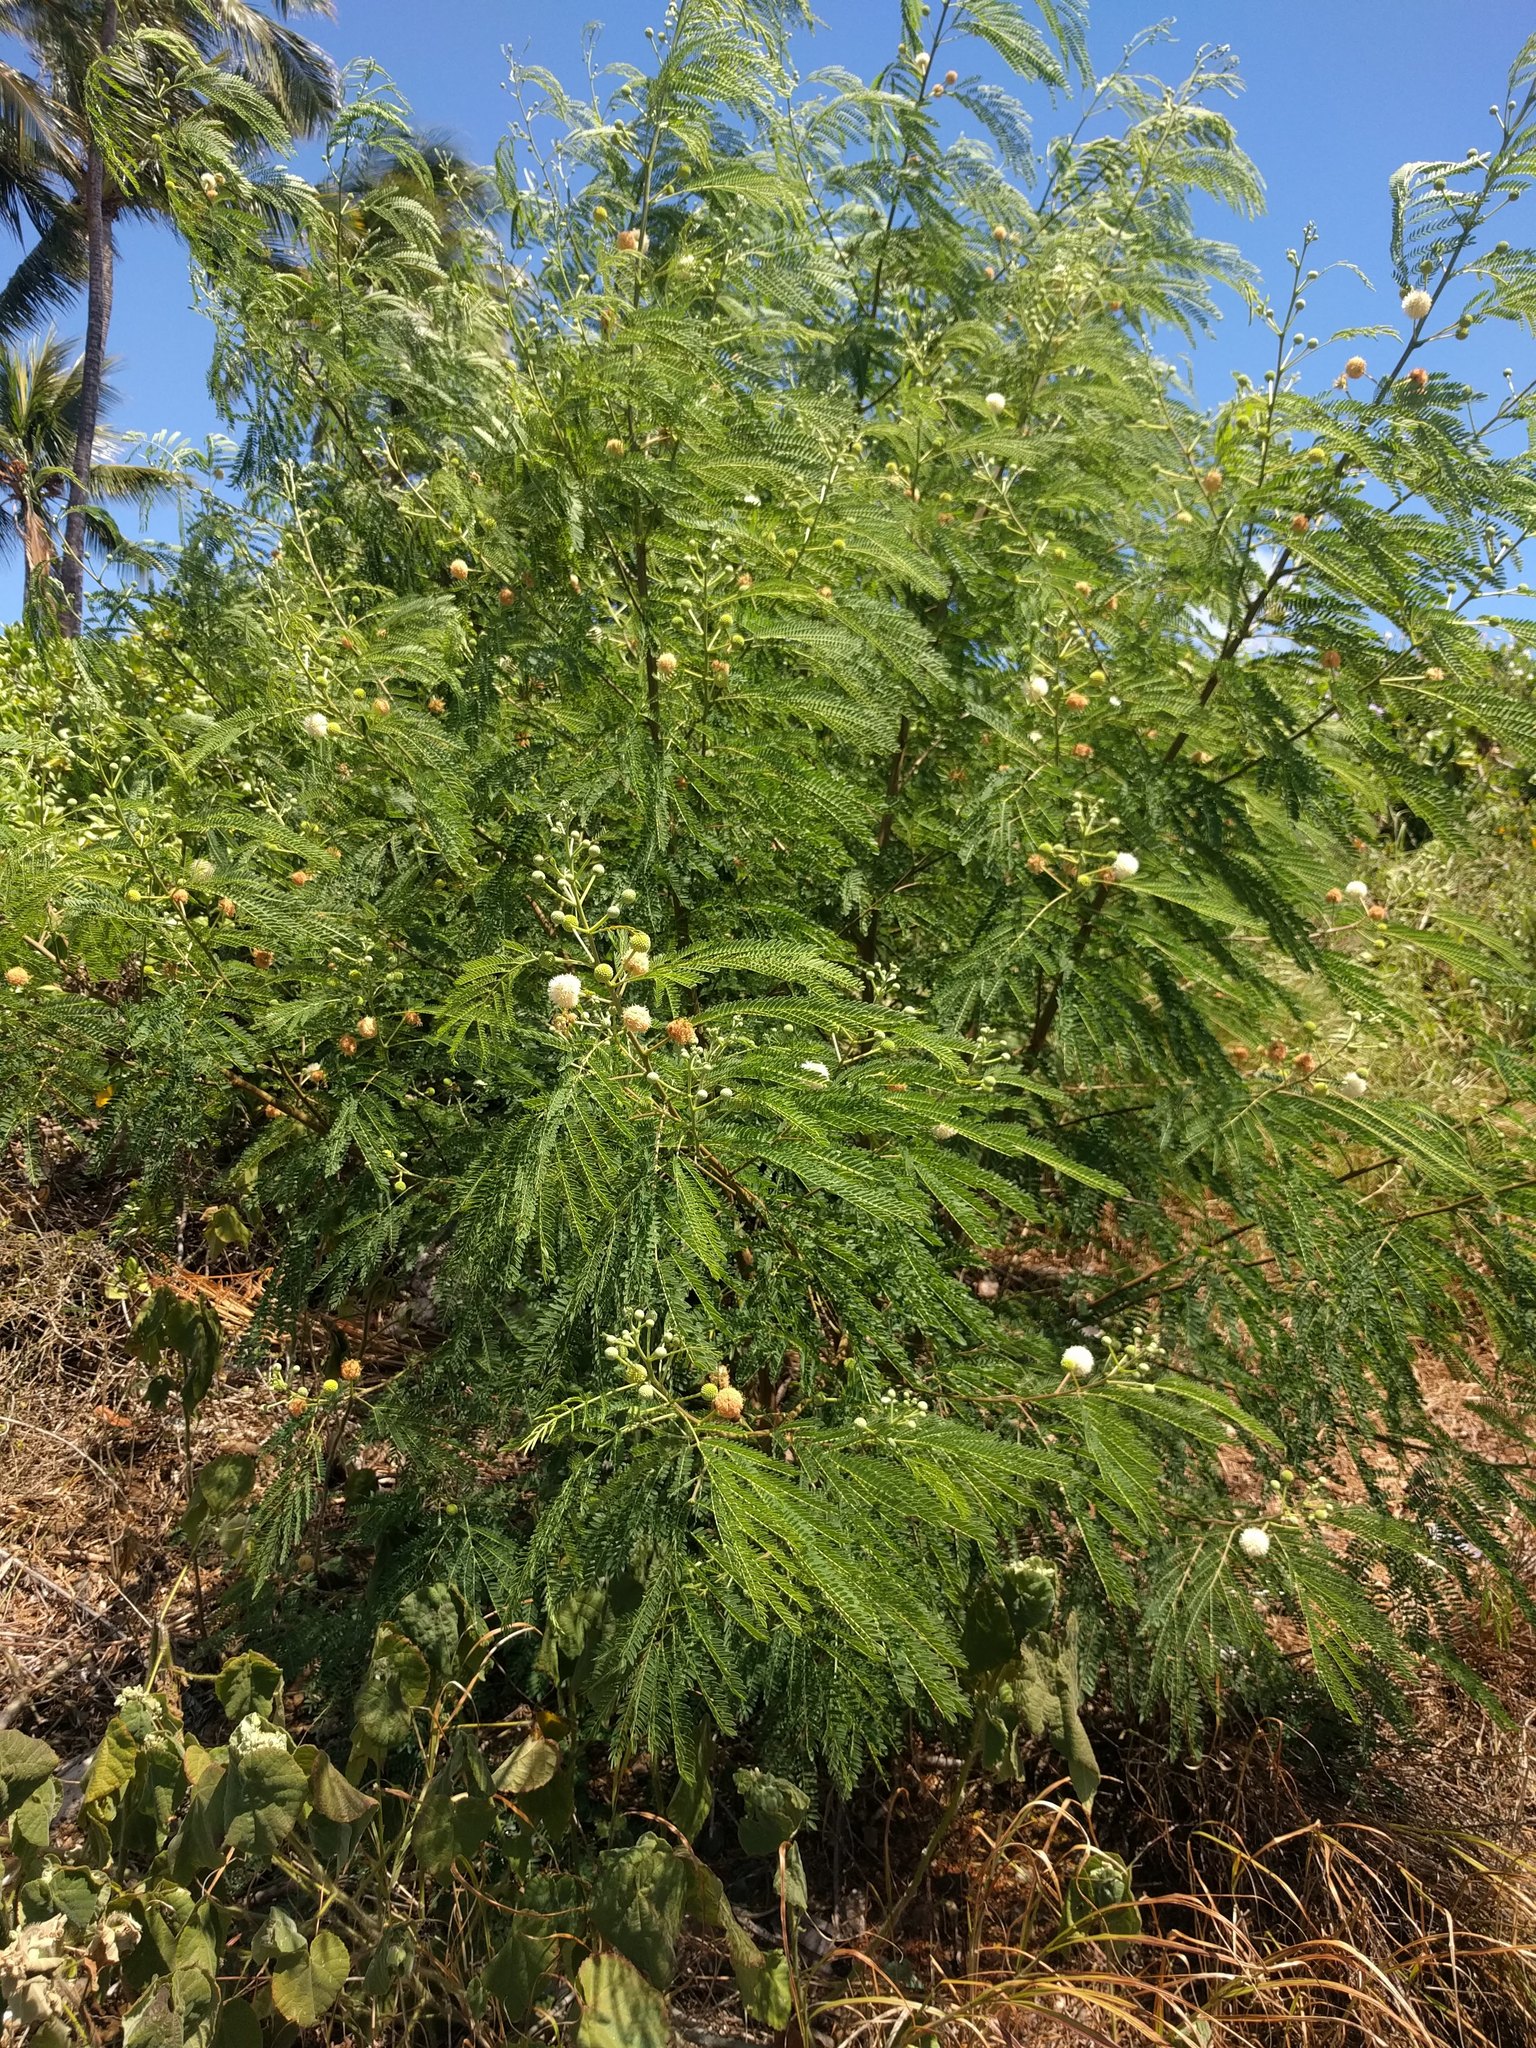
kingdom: Plantae
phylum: Tracheophyta
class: Magnoliopsida
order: Fabales
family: Fabaceae
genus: Leucaena
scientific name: Leucaena leucocephala
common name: White leadtree
